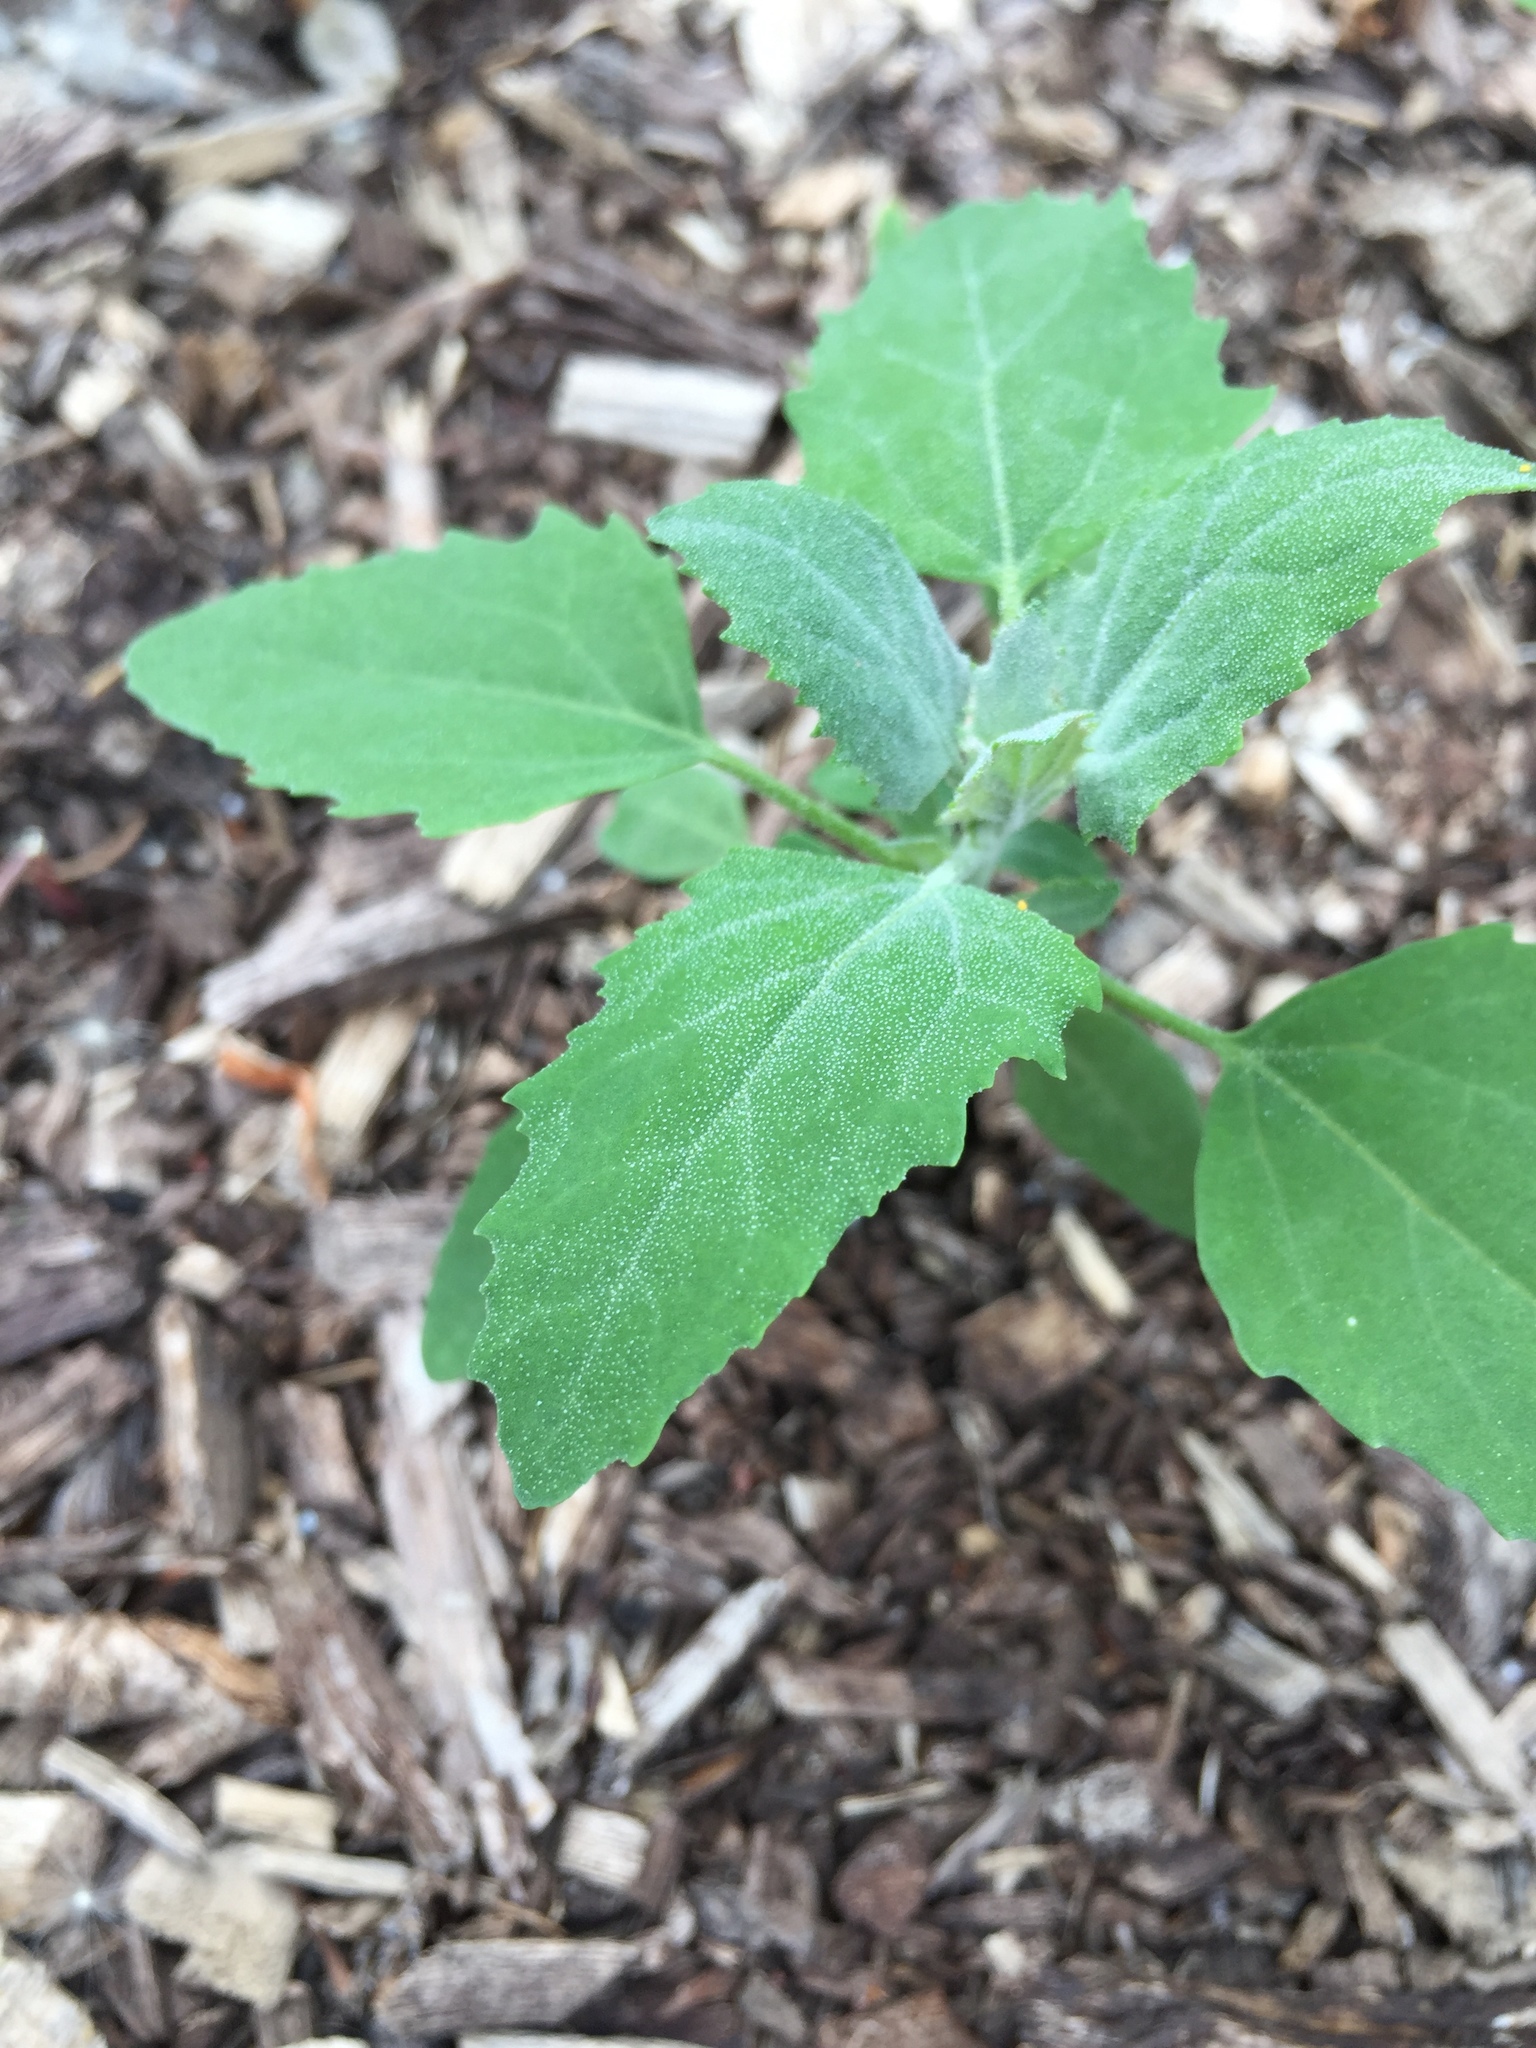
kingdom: Plantae
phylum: Tracheophyta
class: Magnoliopsida
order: Caryophyllales
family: Amaranthaceae
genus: Chenopodium
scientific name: Chenopodium album
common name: Fat-hen
